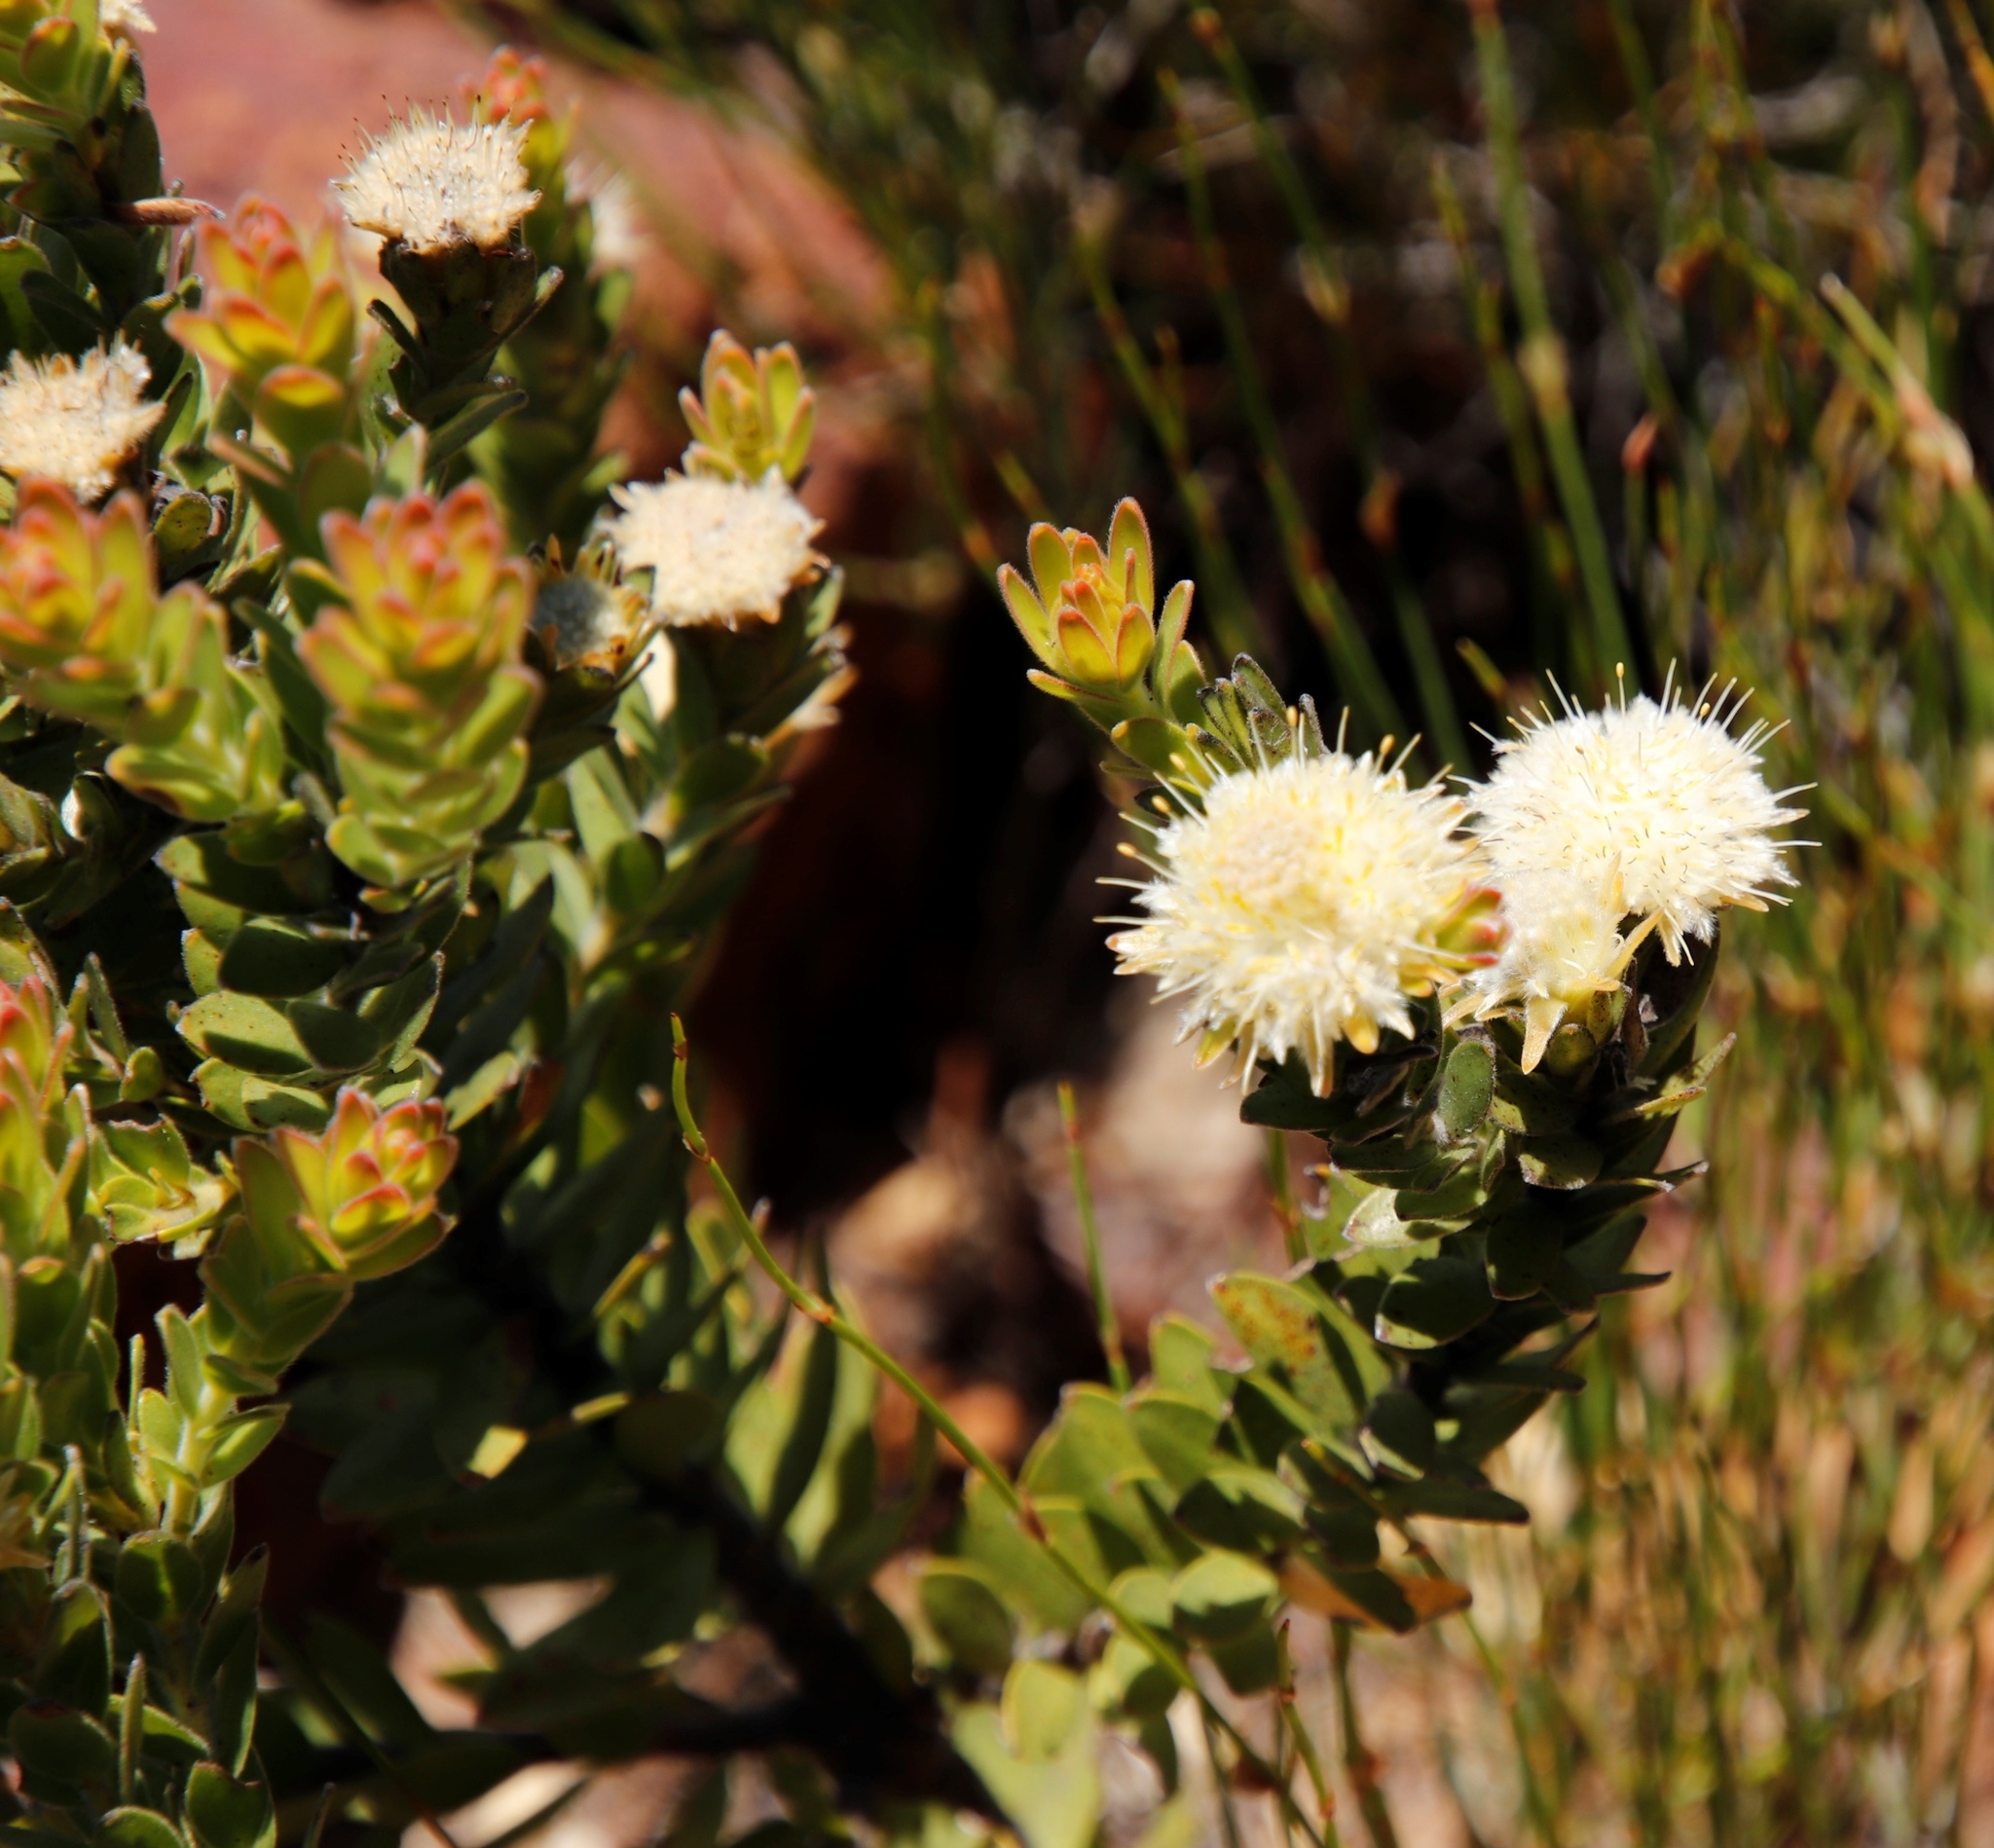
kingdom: Plantae
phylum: Tracheophyta
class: Magnoliopsida
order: Proteales
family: Proteaceae
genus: Diastella
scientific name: Diastella thymelaeoides
